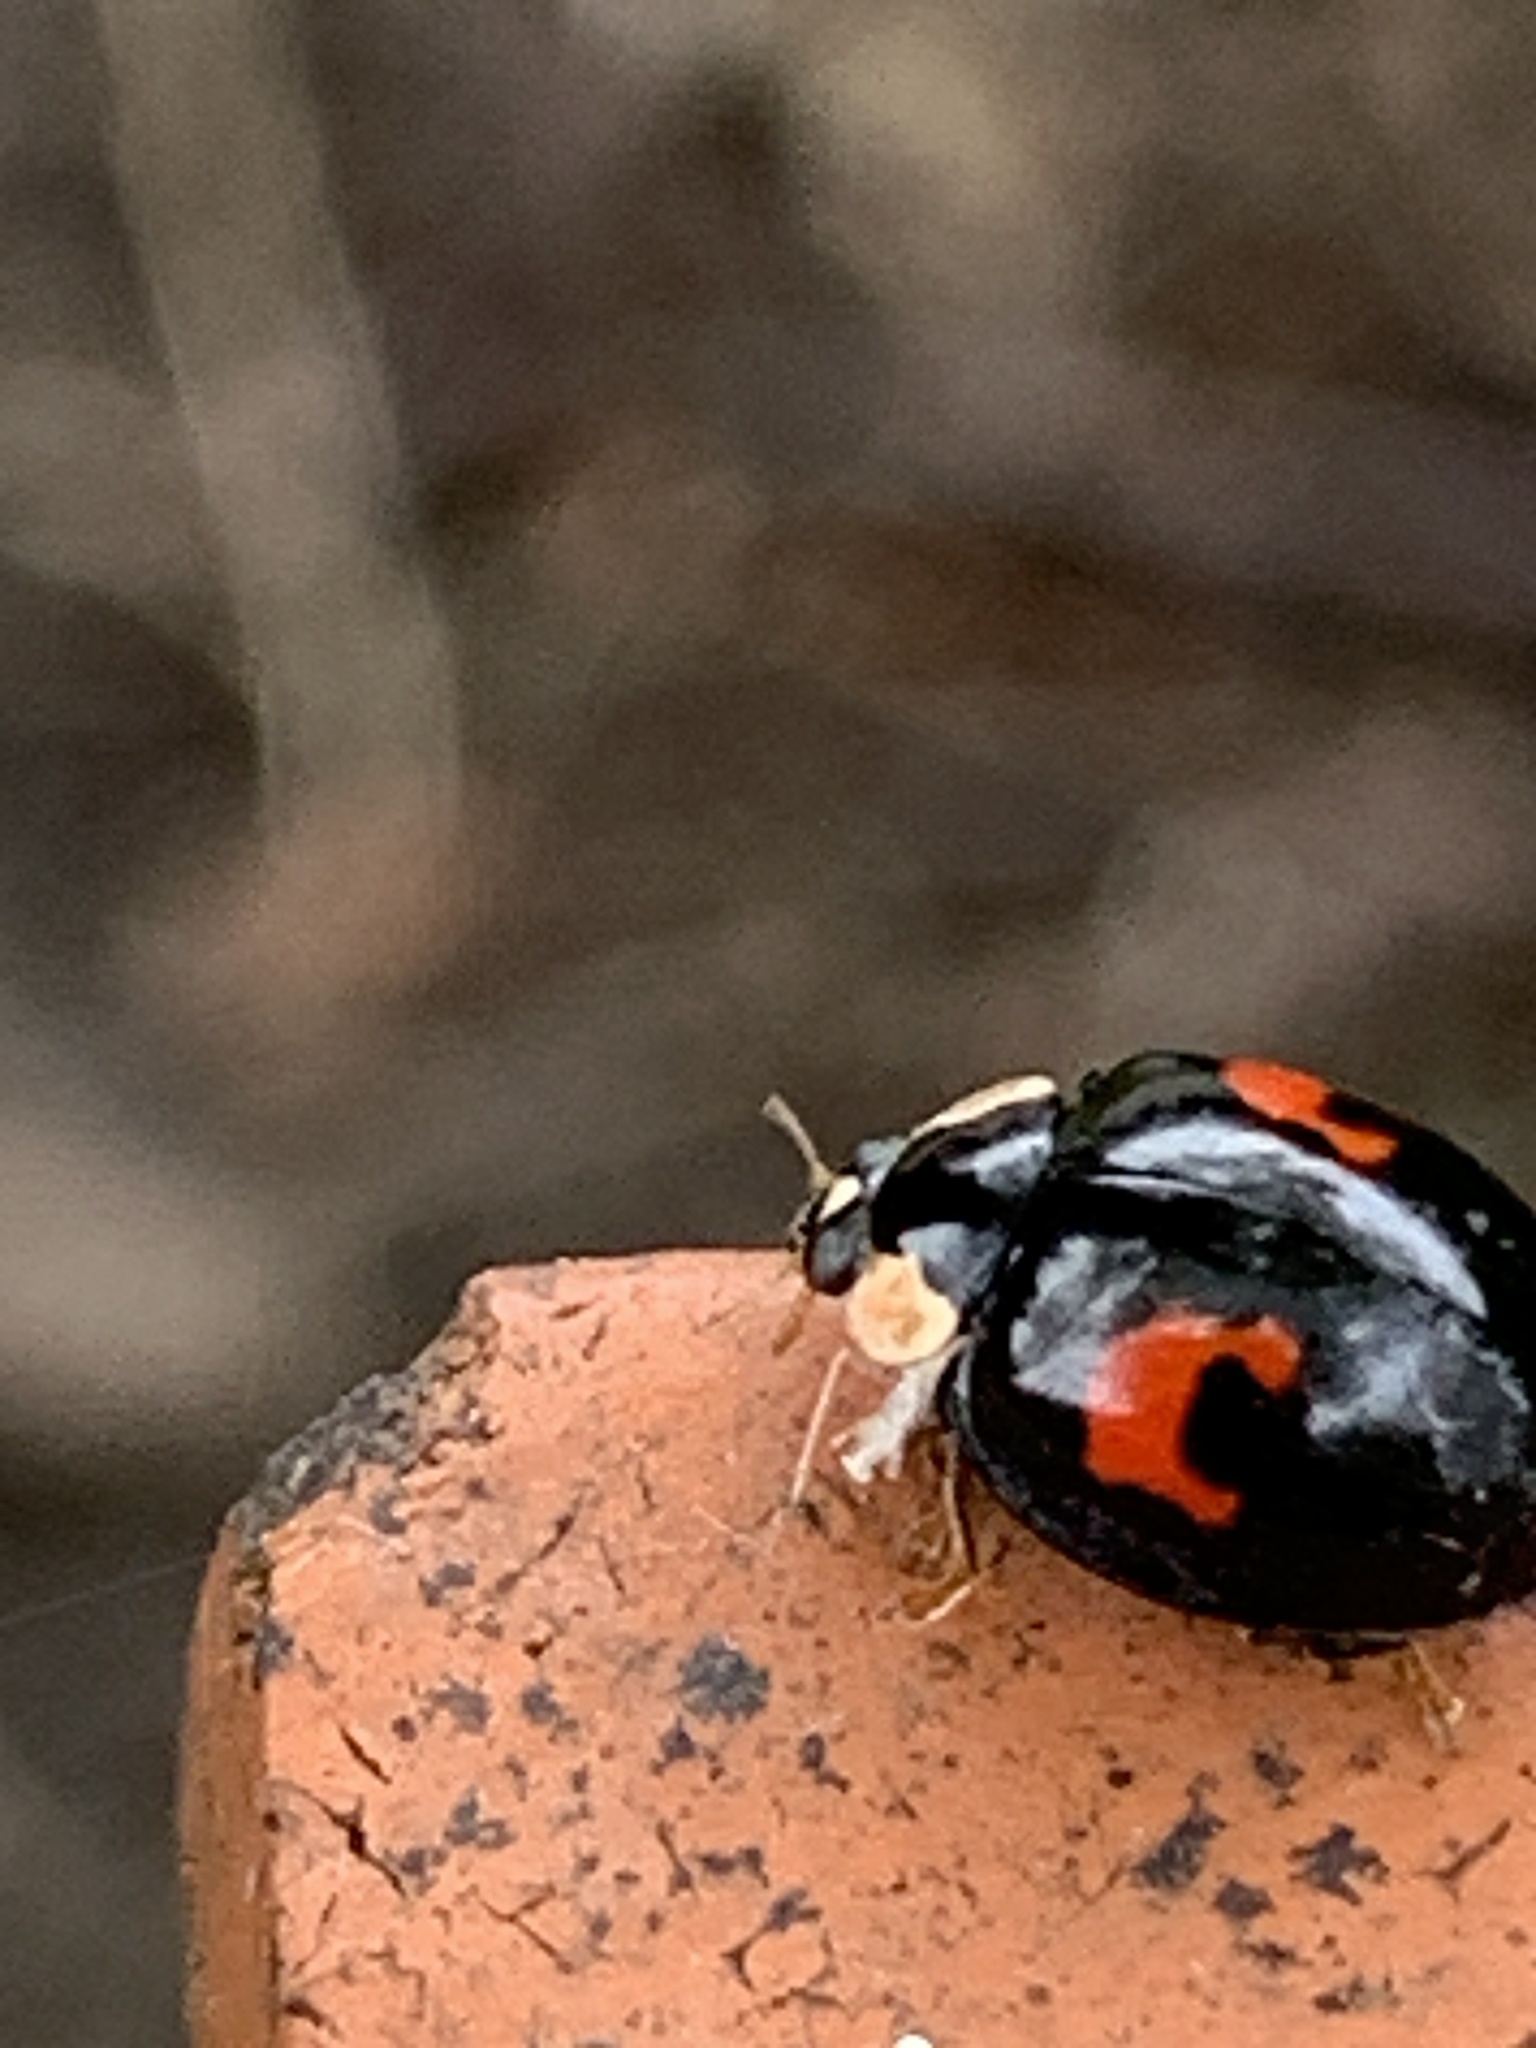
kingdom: Animalia
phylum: Arthropoda
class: Insecta
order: Coleoptera
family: Coccinellidae
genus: Harmonia
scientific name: Harmonia axyridis
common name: Harlequin ladybird
